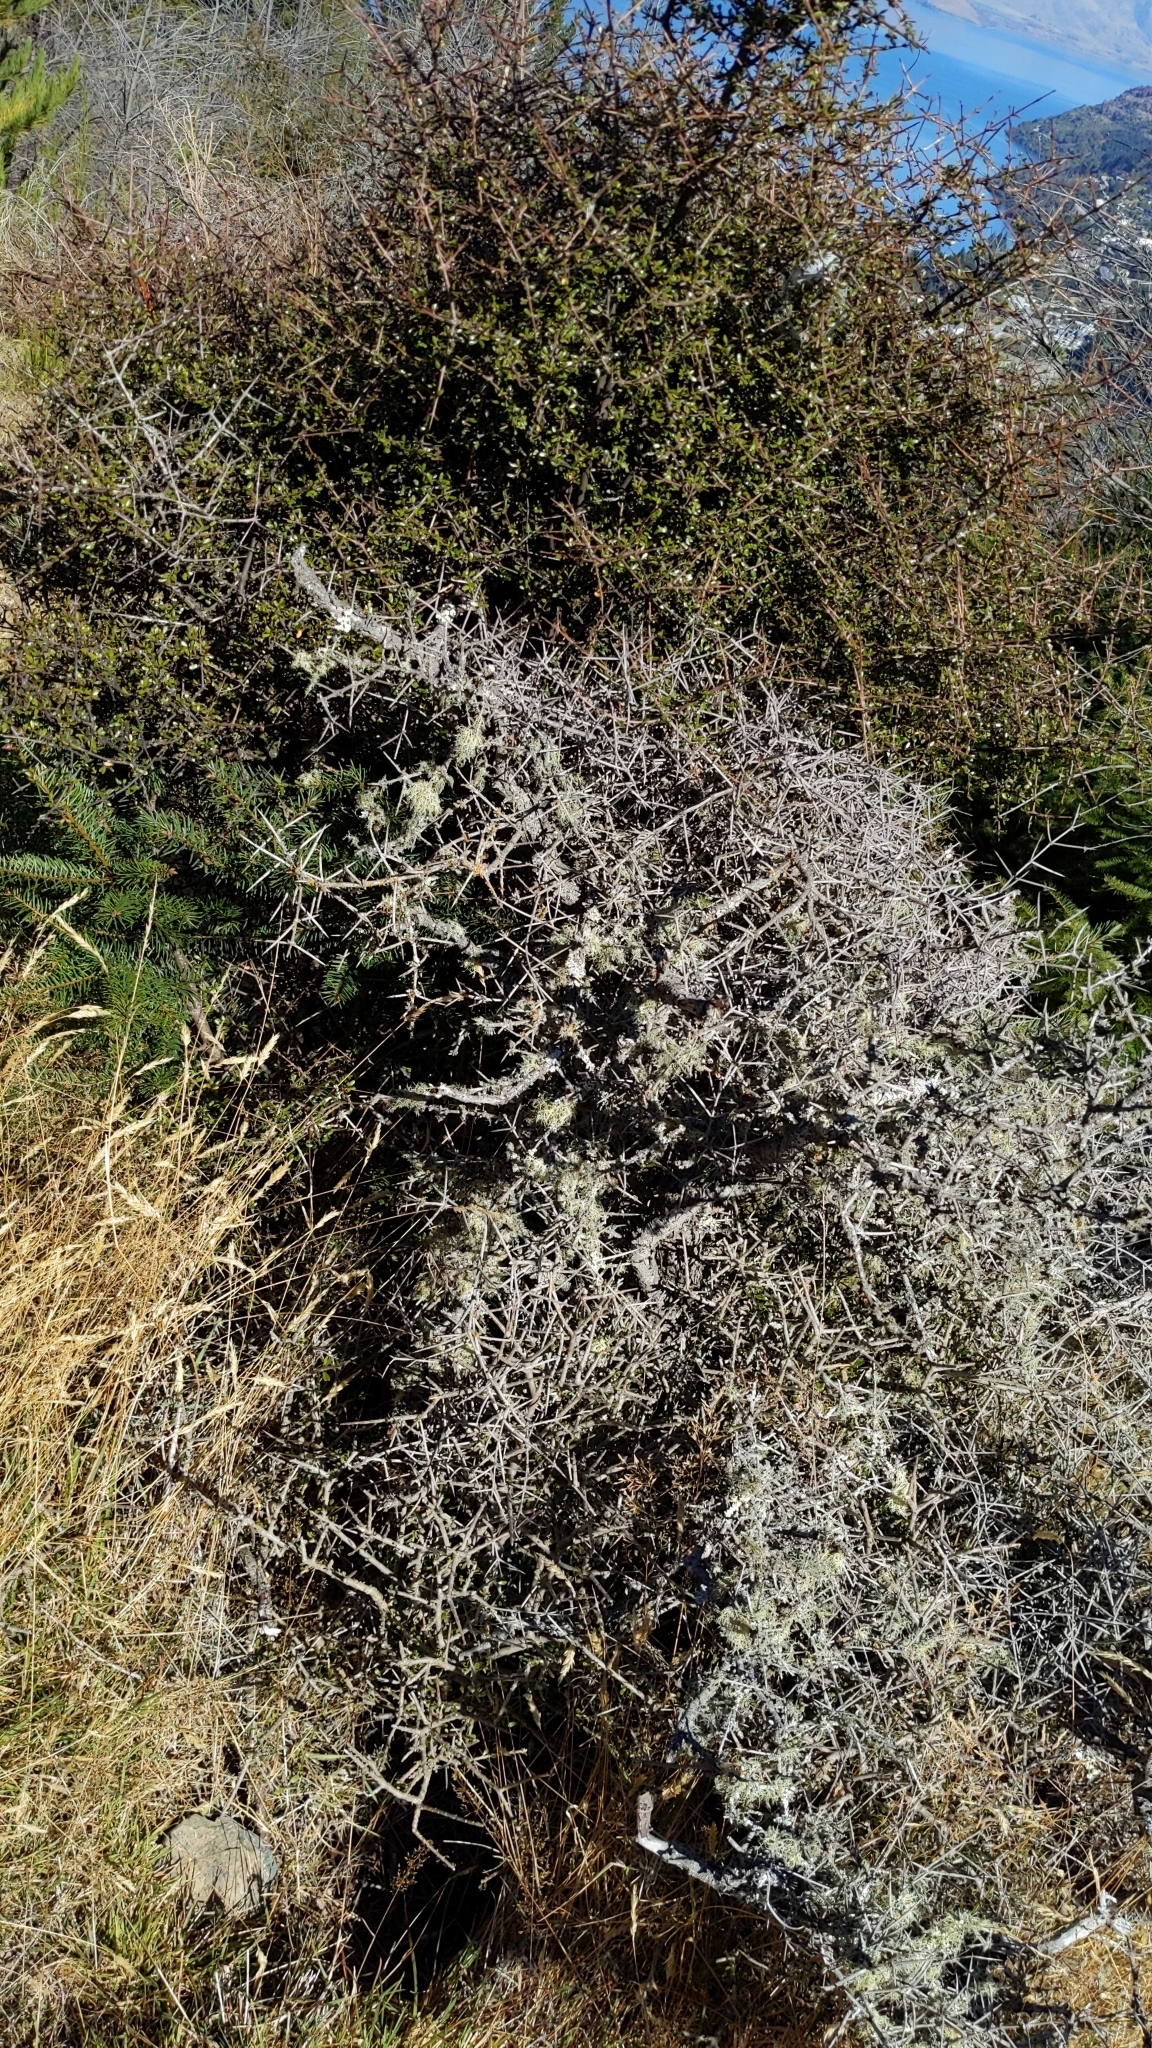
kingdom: Plantae
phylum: Tracheophyta
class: Magnoliopsida
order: Rosales
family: Rhamnaceae
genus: Discaria
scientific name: Discaria toumatou
